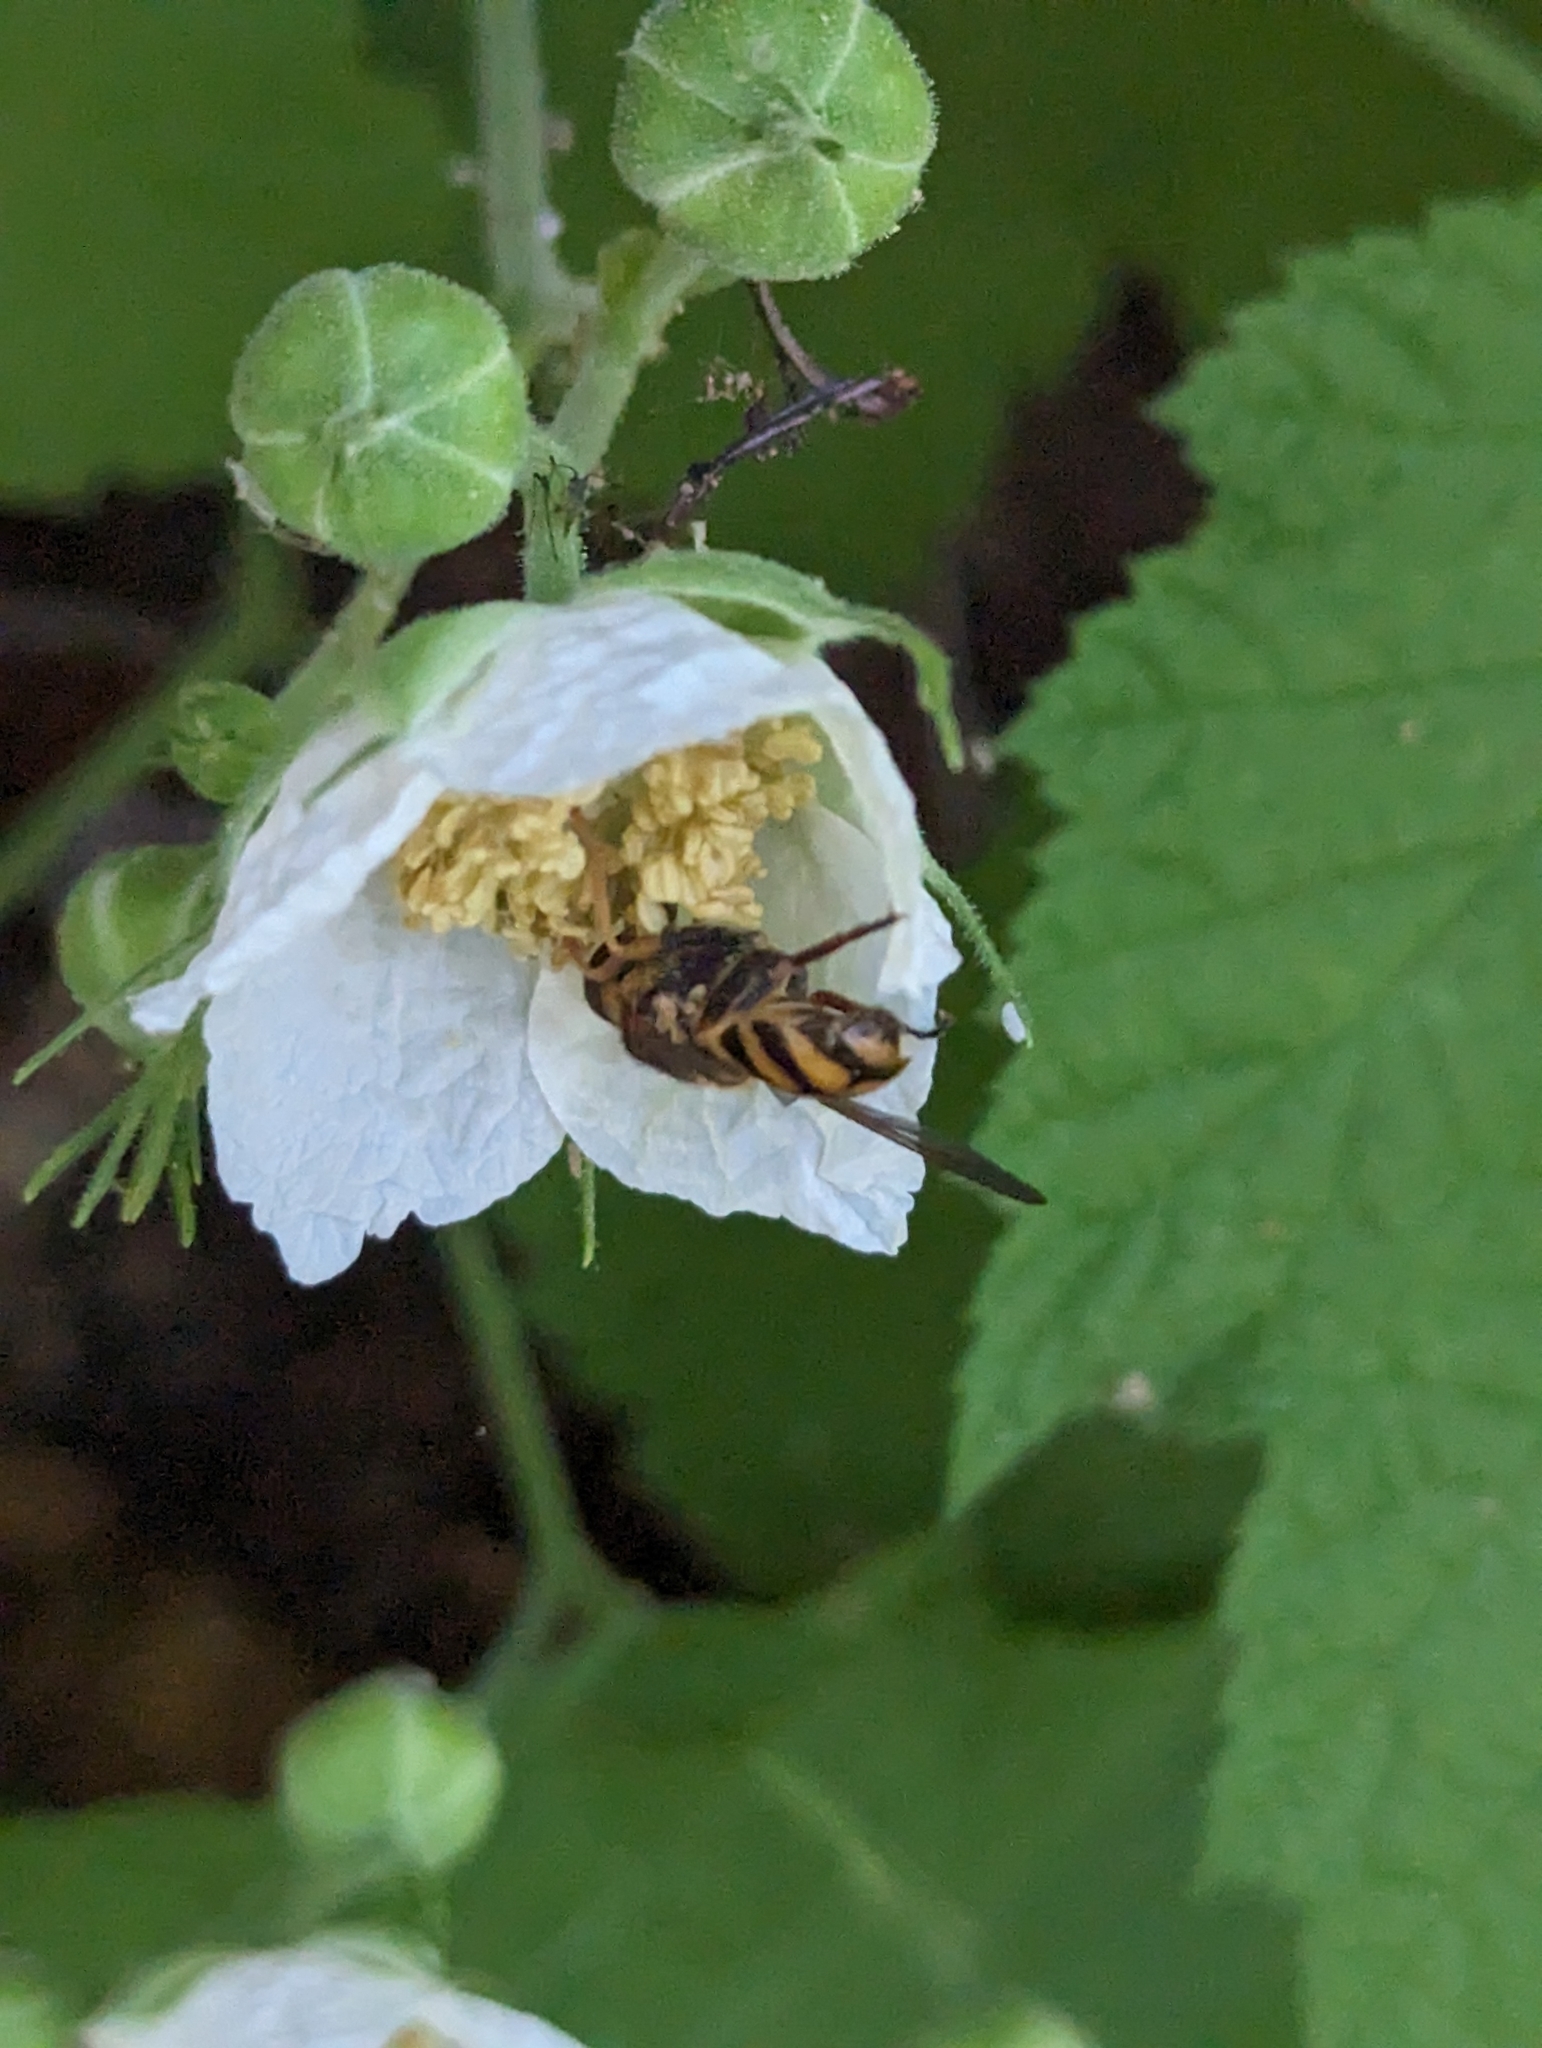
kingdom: Animalia
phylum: Arthropoda
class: Insecta
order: Diptera
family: Syrphidae
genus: Blera
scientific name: Blera scitula
